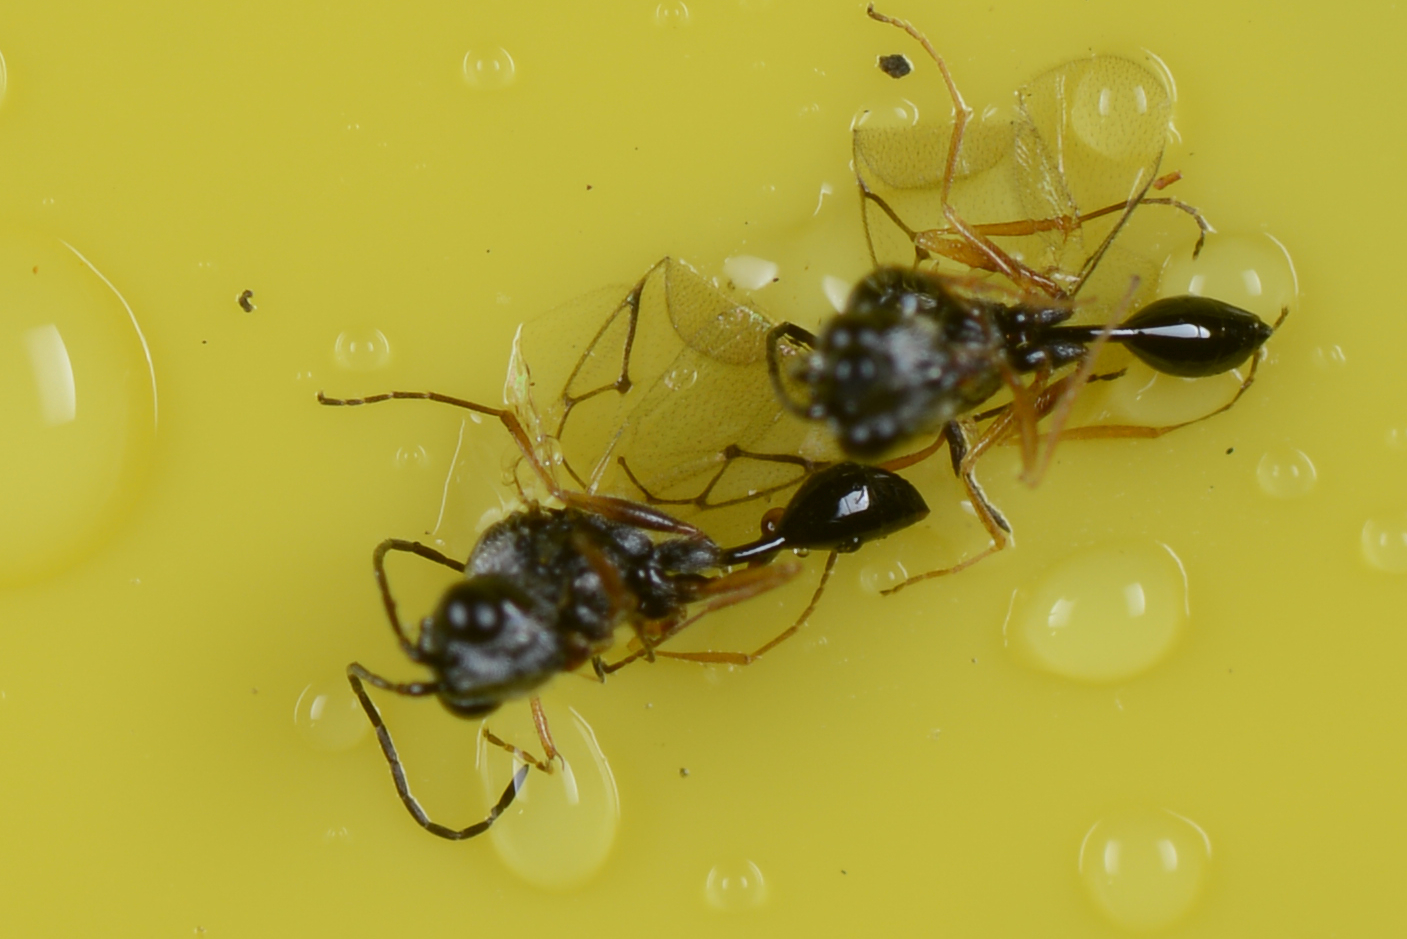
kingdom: Animalia
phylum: Arthropoda
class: Insecta
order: Hymenoptera
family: Figitidae
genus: Anacharis
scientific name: Anacharis zealandica
